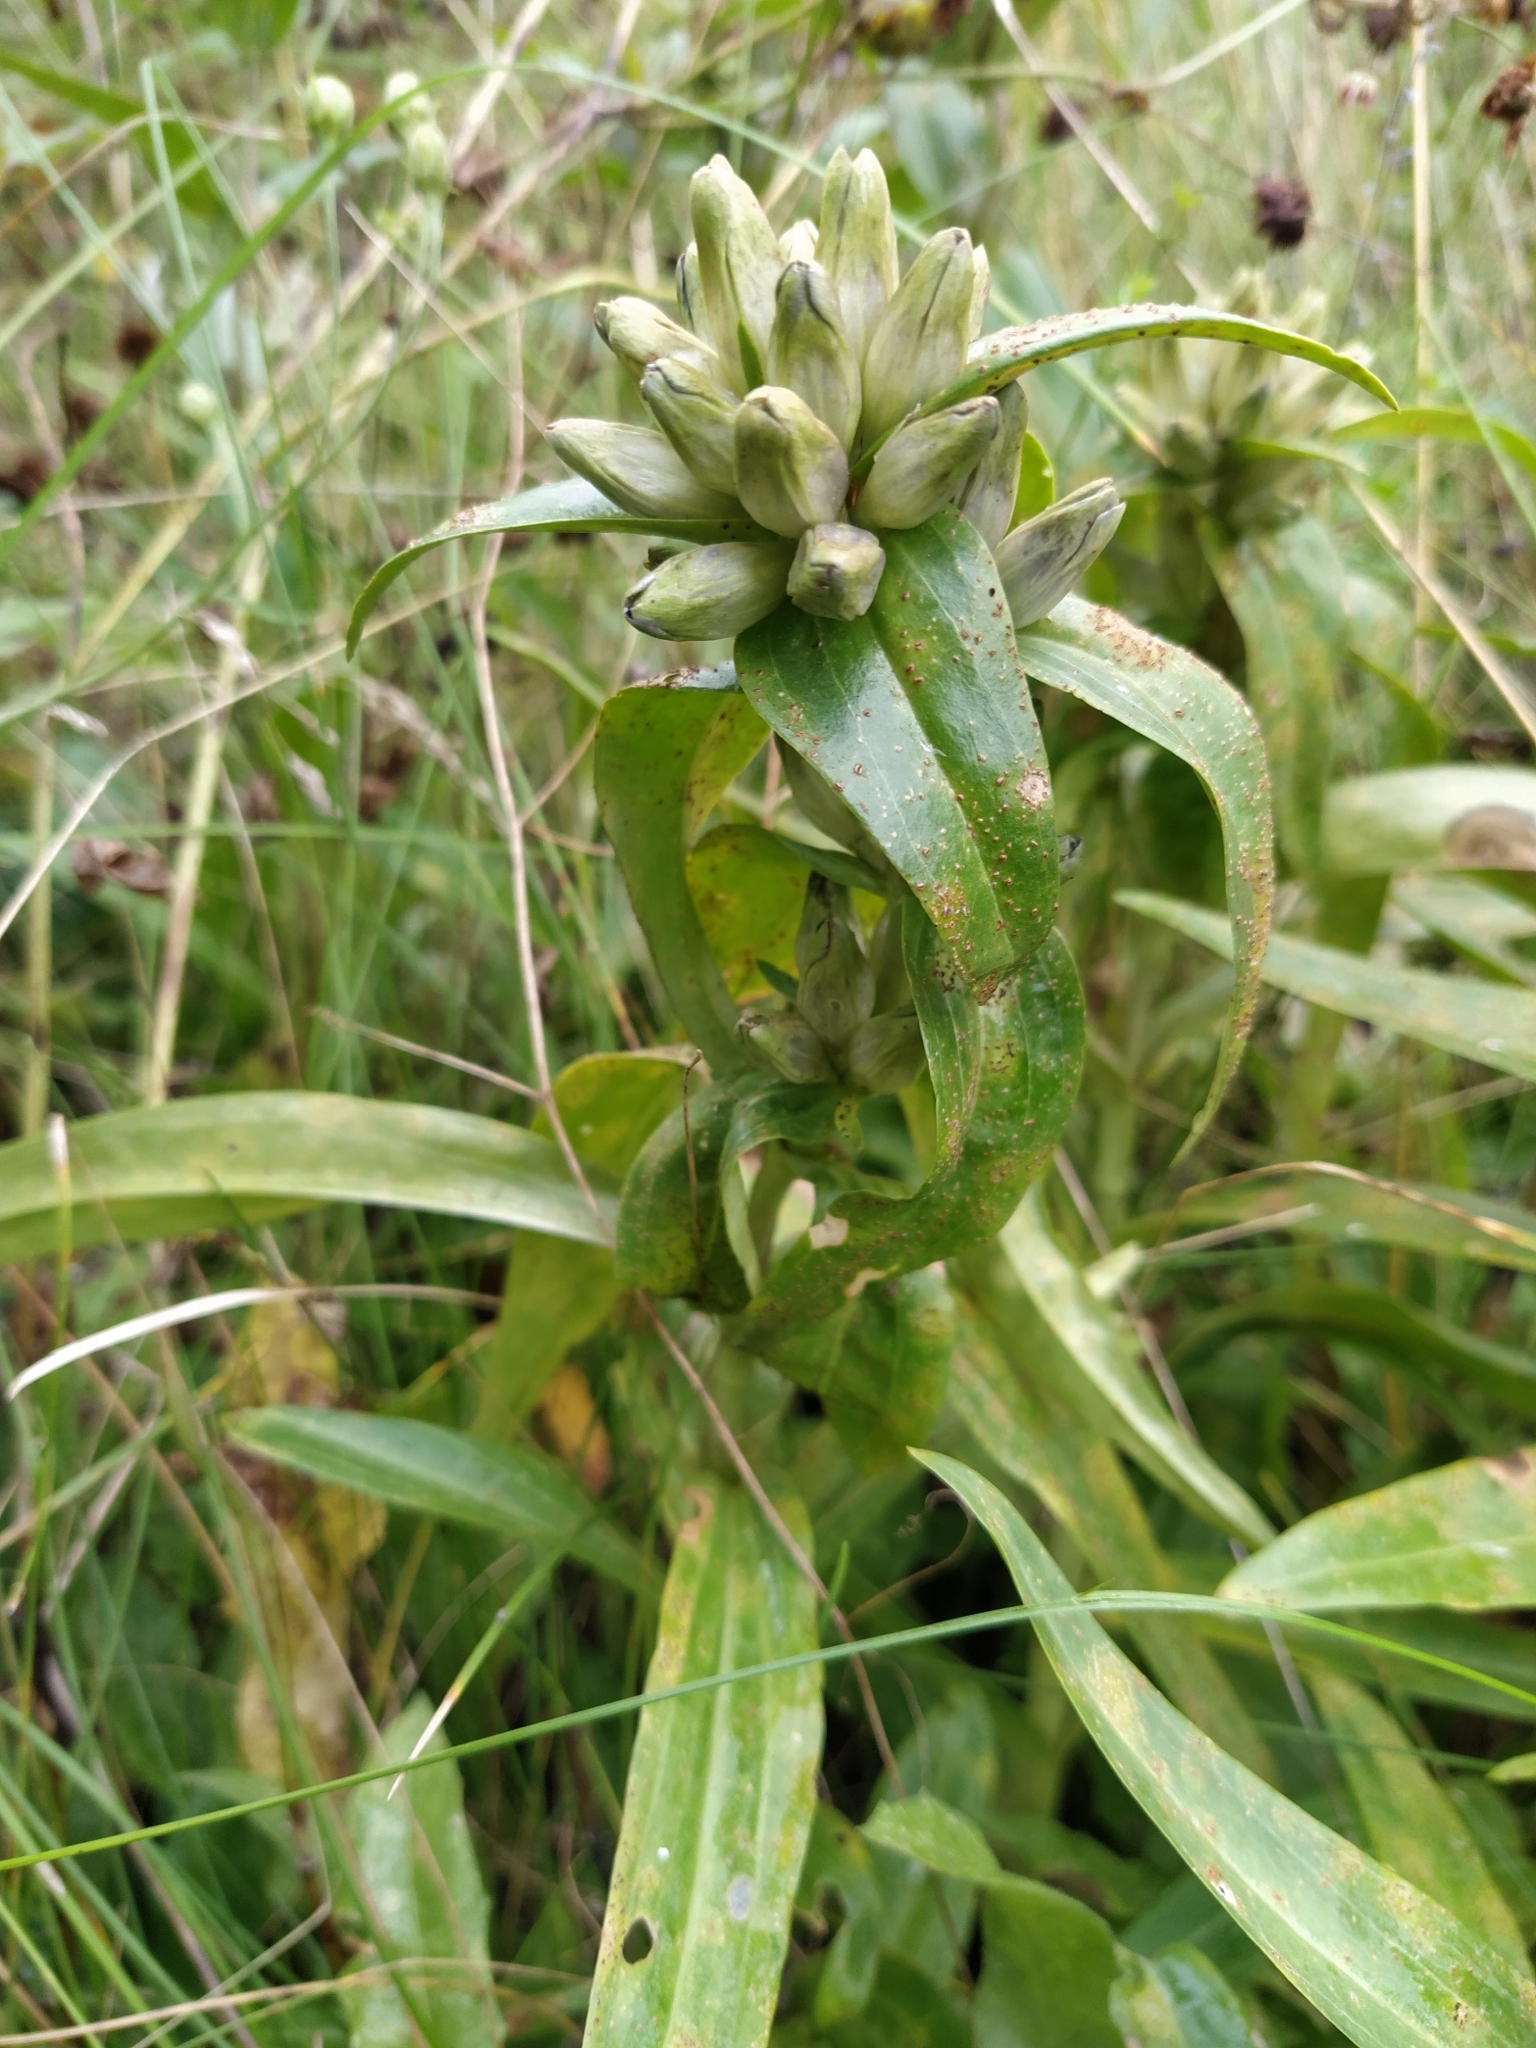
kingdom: Plantae
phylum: Tracheophyta
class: Magnoliopsida
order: Gentianales
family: Gentianaceae
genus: Gentiana
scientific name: Gentiana cruciata
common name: Cross gentian
